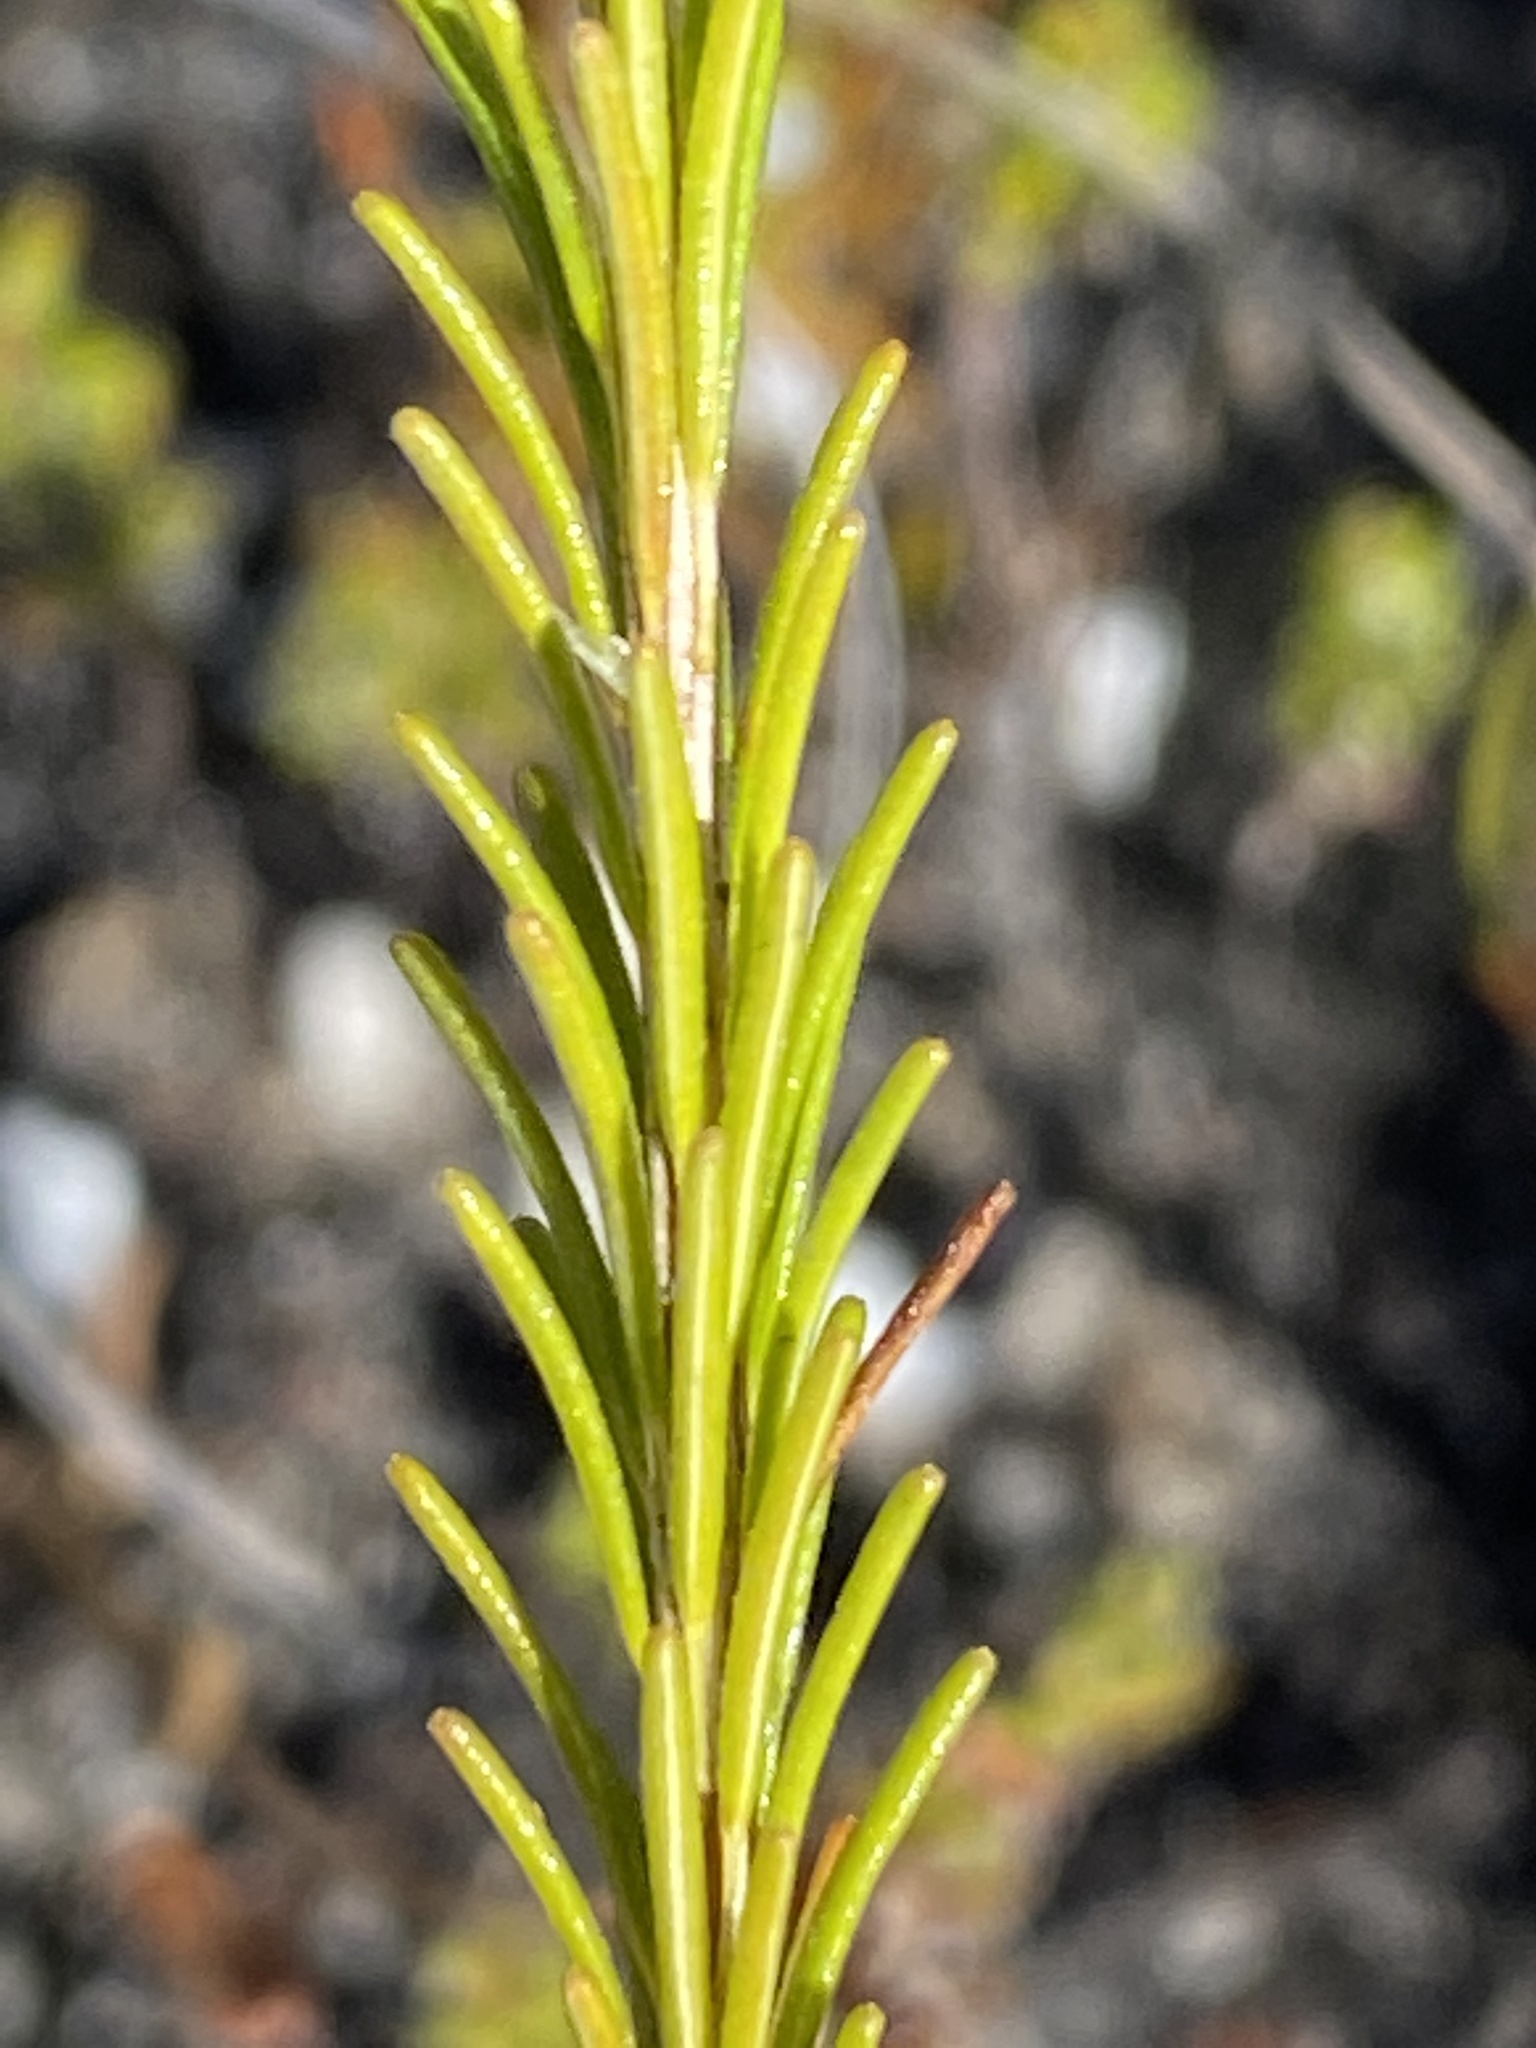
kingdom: Plantae
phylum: Tracheophyta
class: Magnoliopsida
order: Ericales
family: Ericaceae
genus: Erica
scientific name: Erica obliqua
